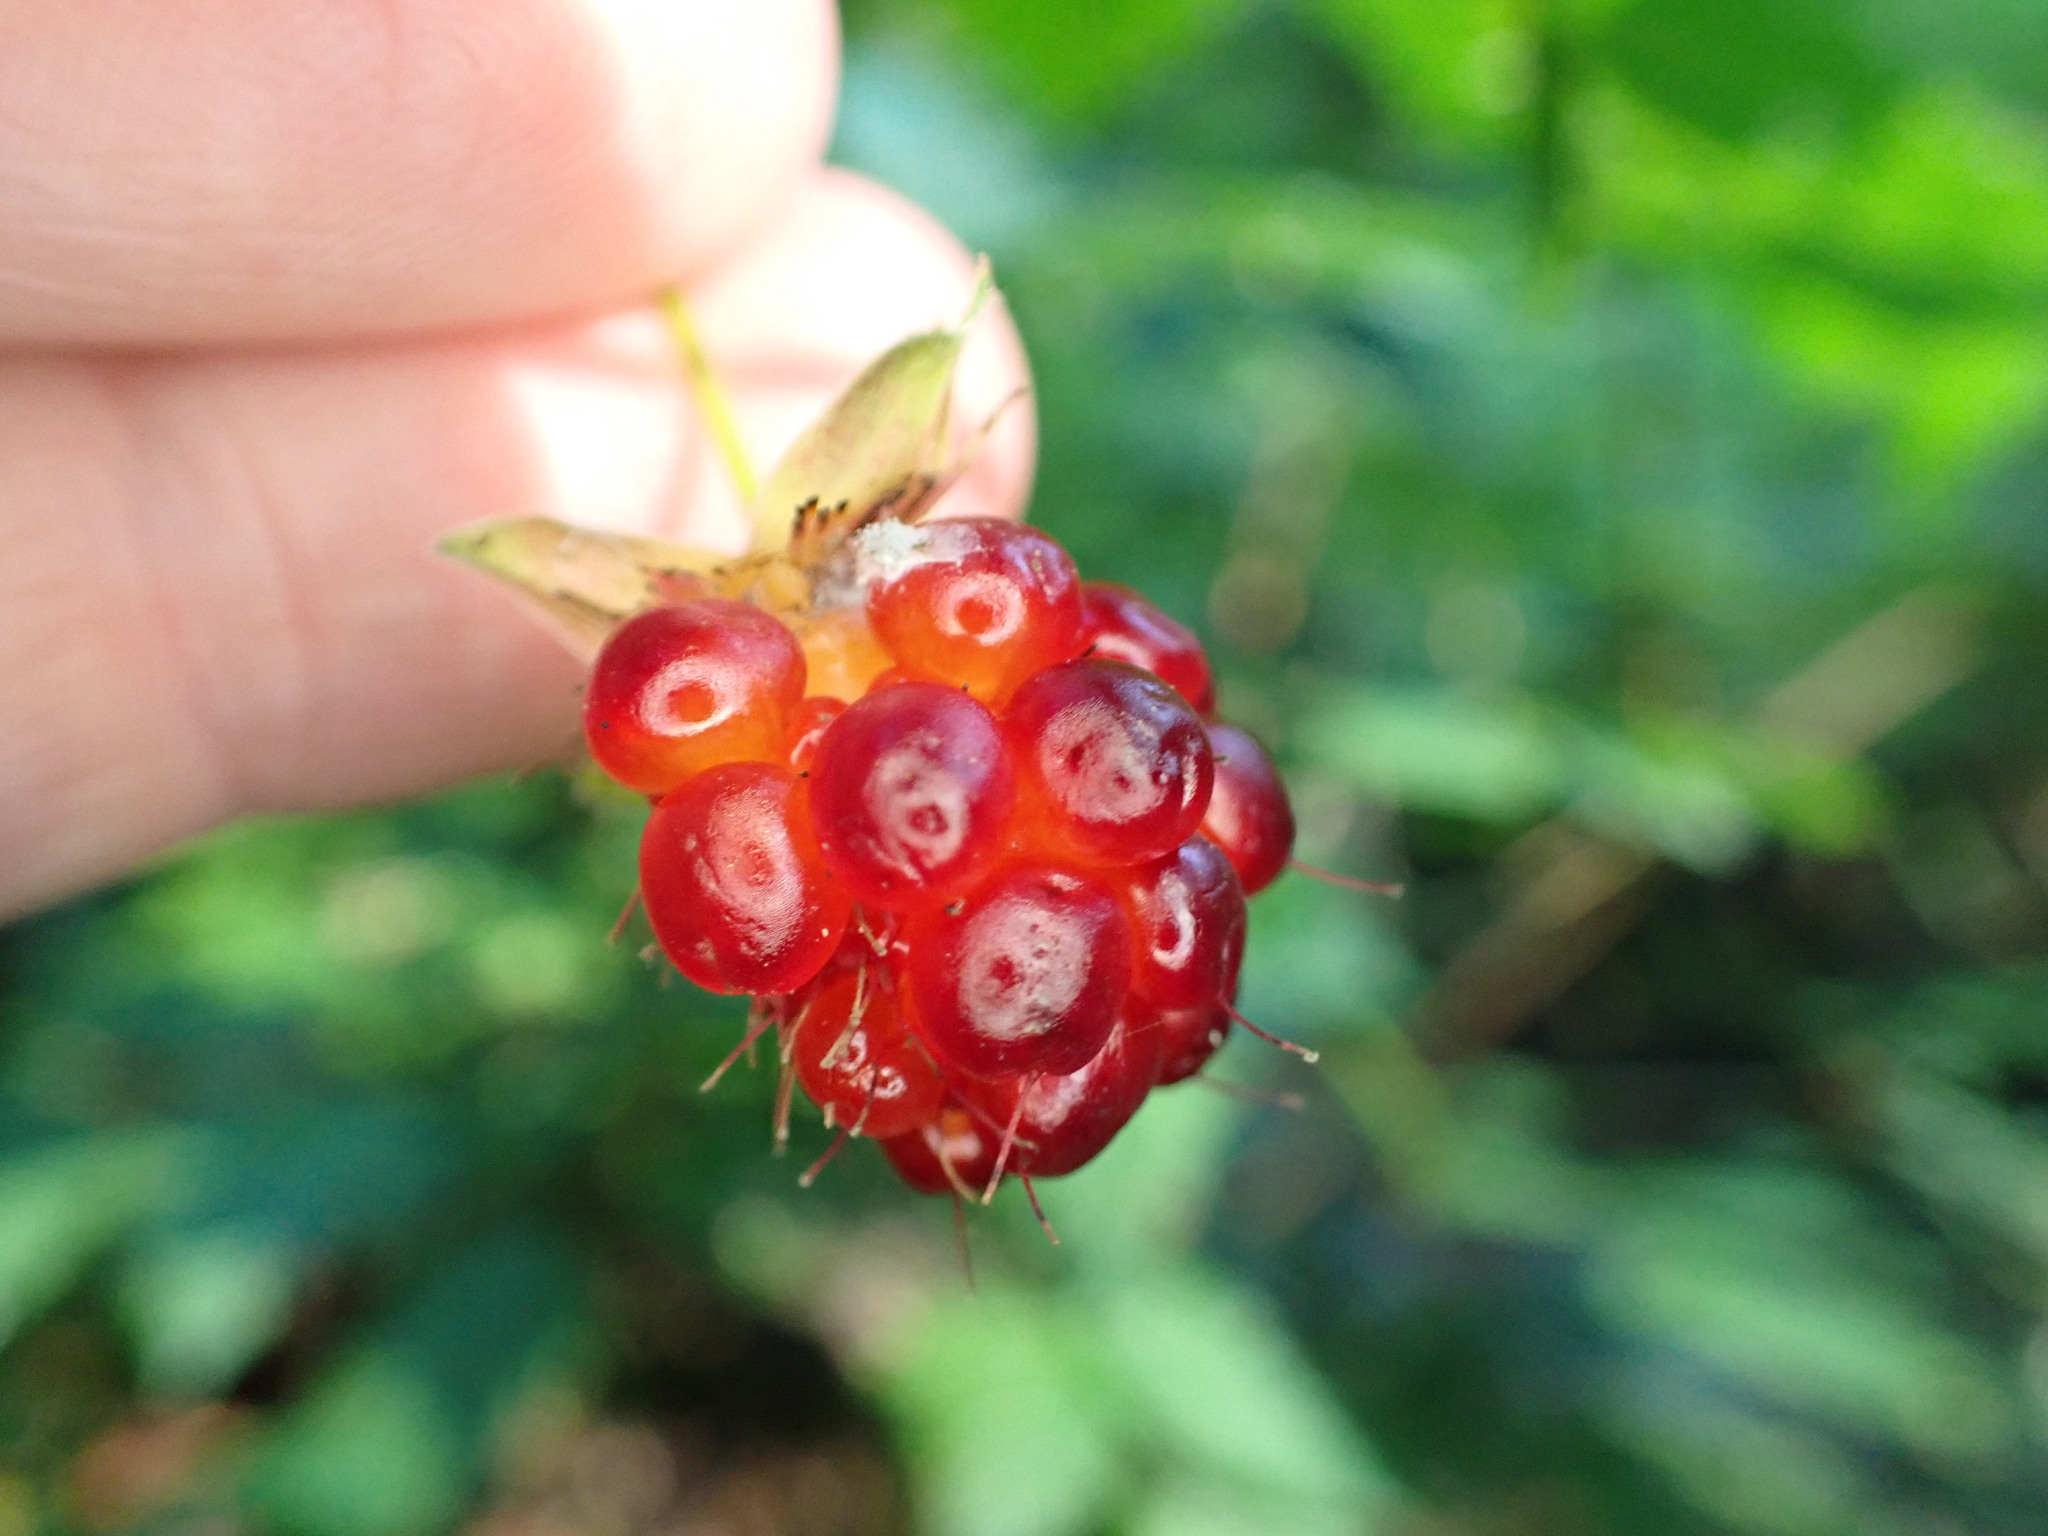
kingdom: Plantae
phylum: Tracheophyta
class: Magnoliopsida
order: Rosales
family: Rosaceae
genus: Rubus
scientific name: Rubus spectabilis
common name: Salmonberry
